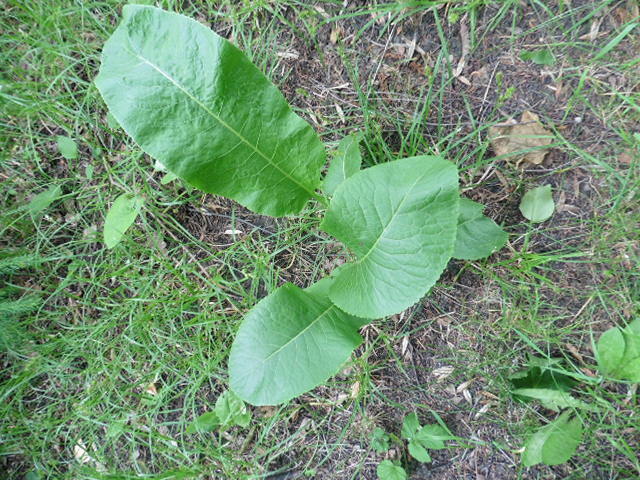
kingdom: Plantae
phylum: Tracheophyta
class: Magnoliopsida
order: Brassicales
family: Brassicaceae
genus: Armoracia
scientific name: Armoracia rusticana
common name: Horseradish
